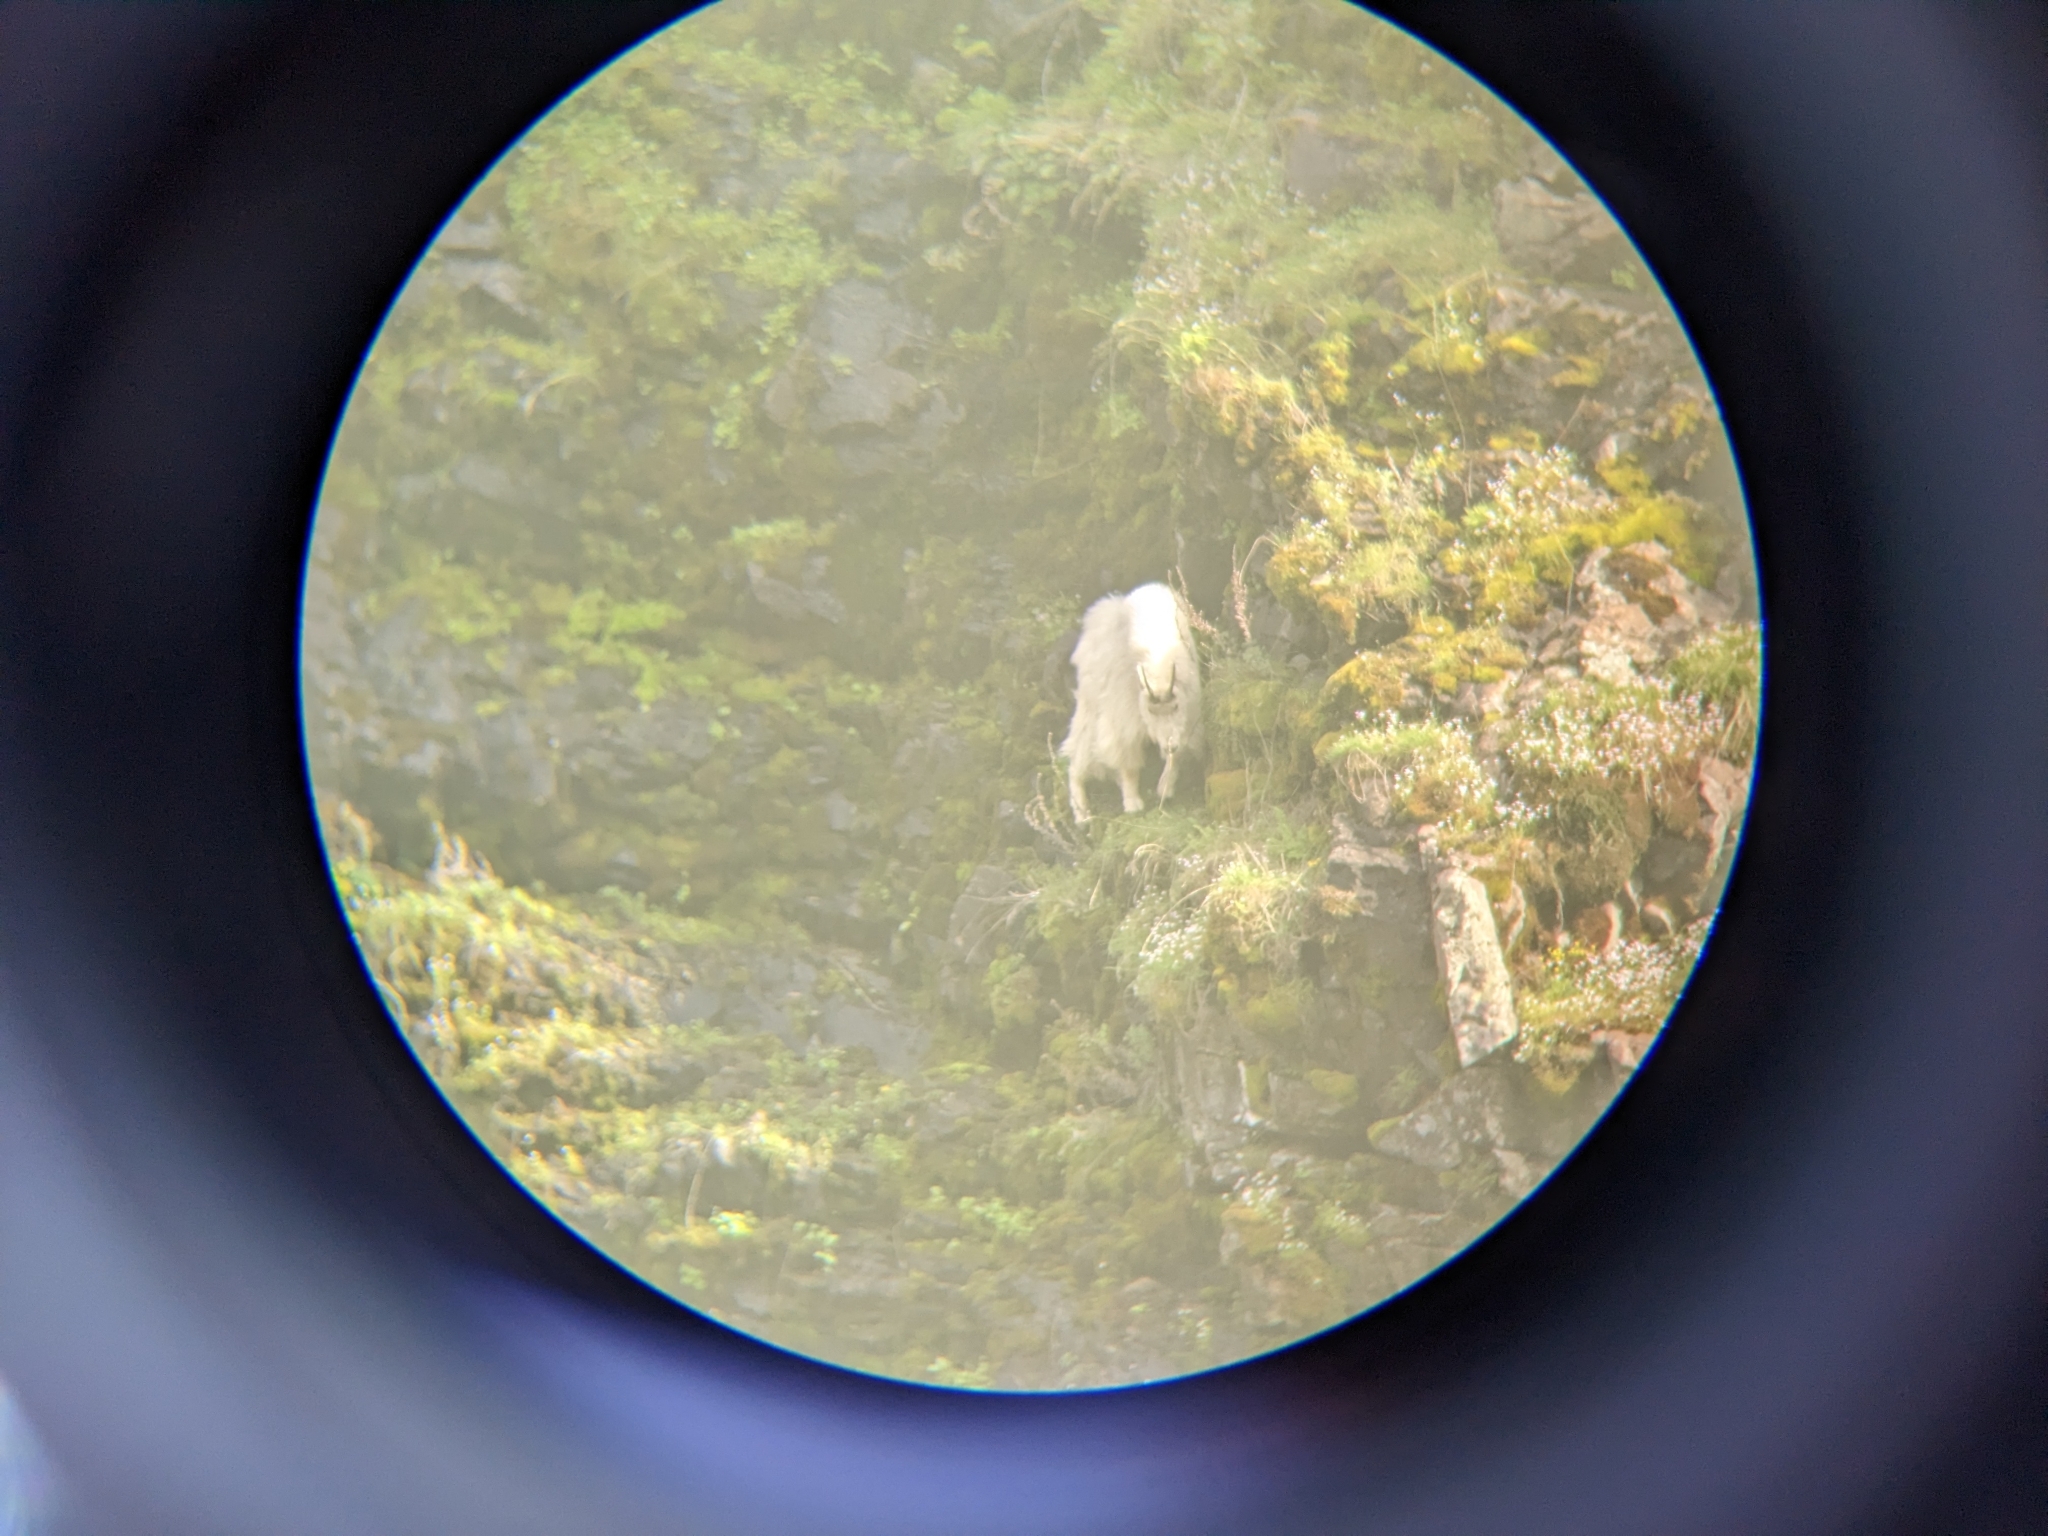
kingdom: Animalia
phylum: Chordata
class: Mammalia
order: Artiodactyla
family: Bovidae
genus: Oreamnos
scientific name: Oreamnos americanus
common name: Mountain goat
